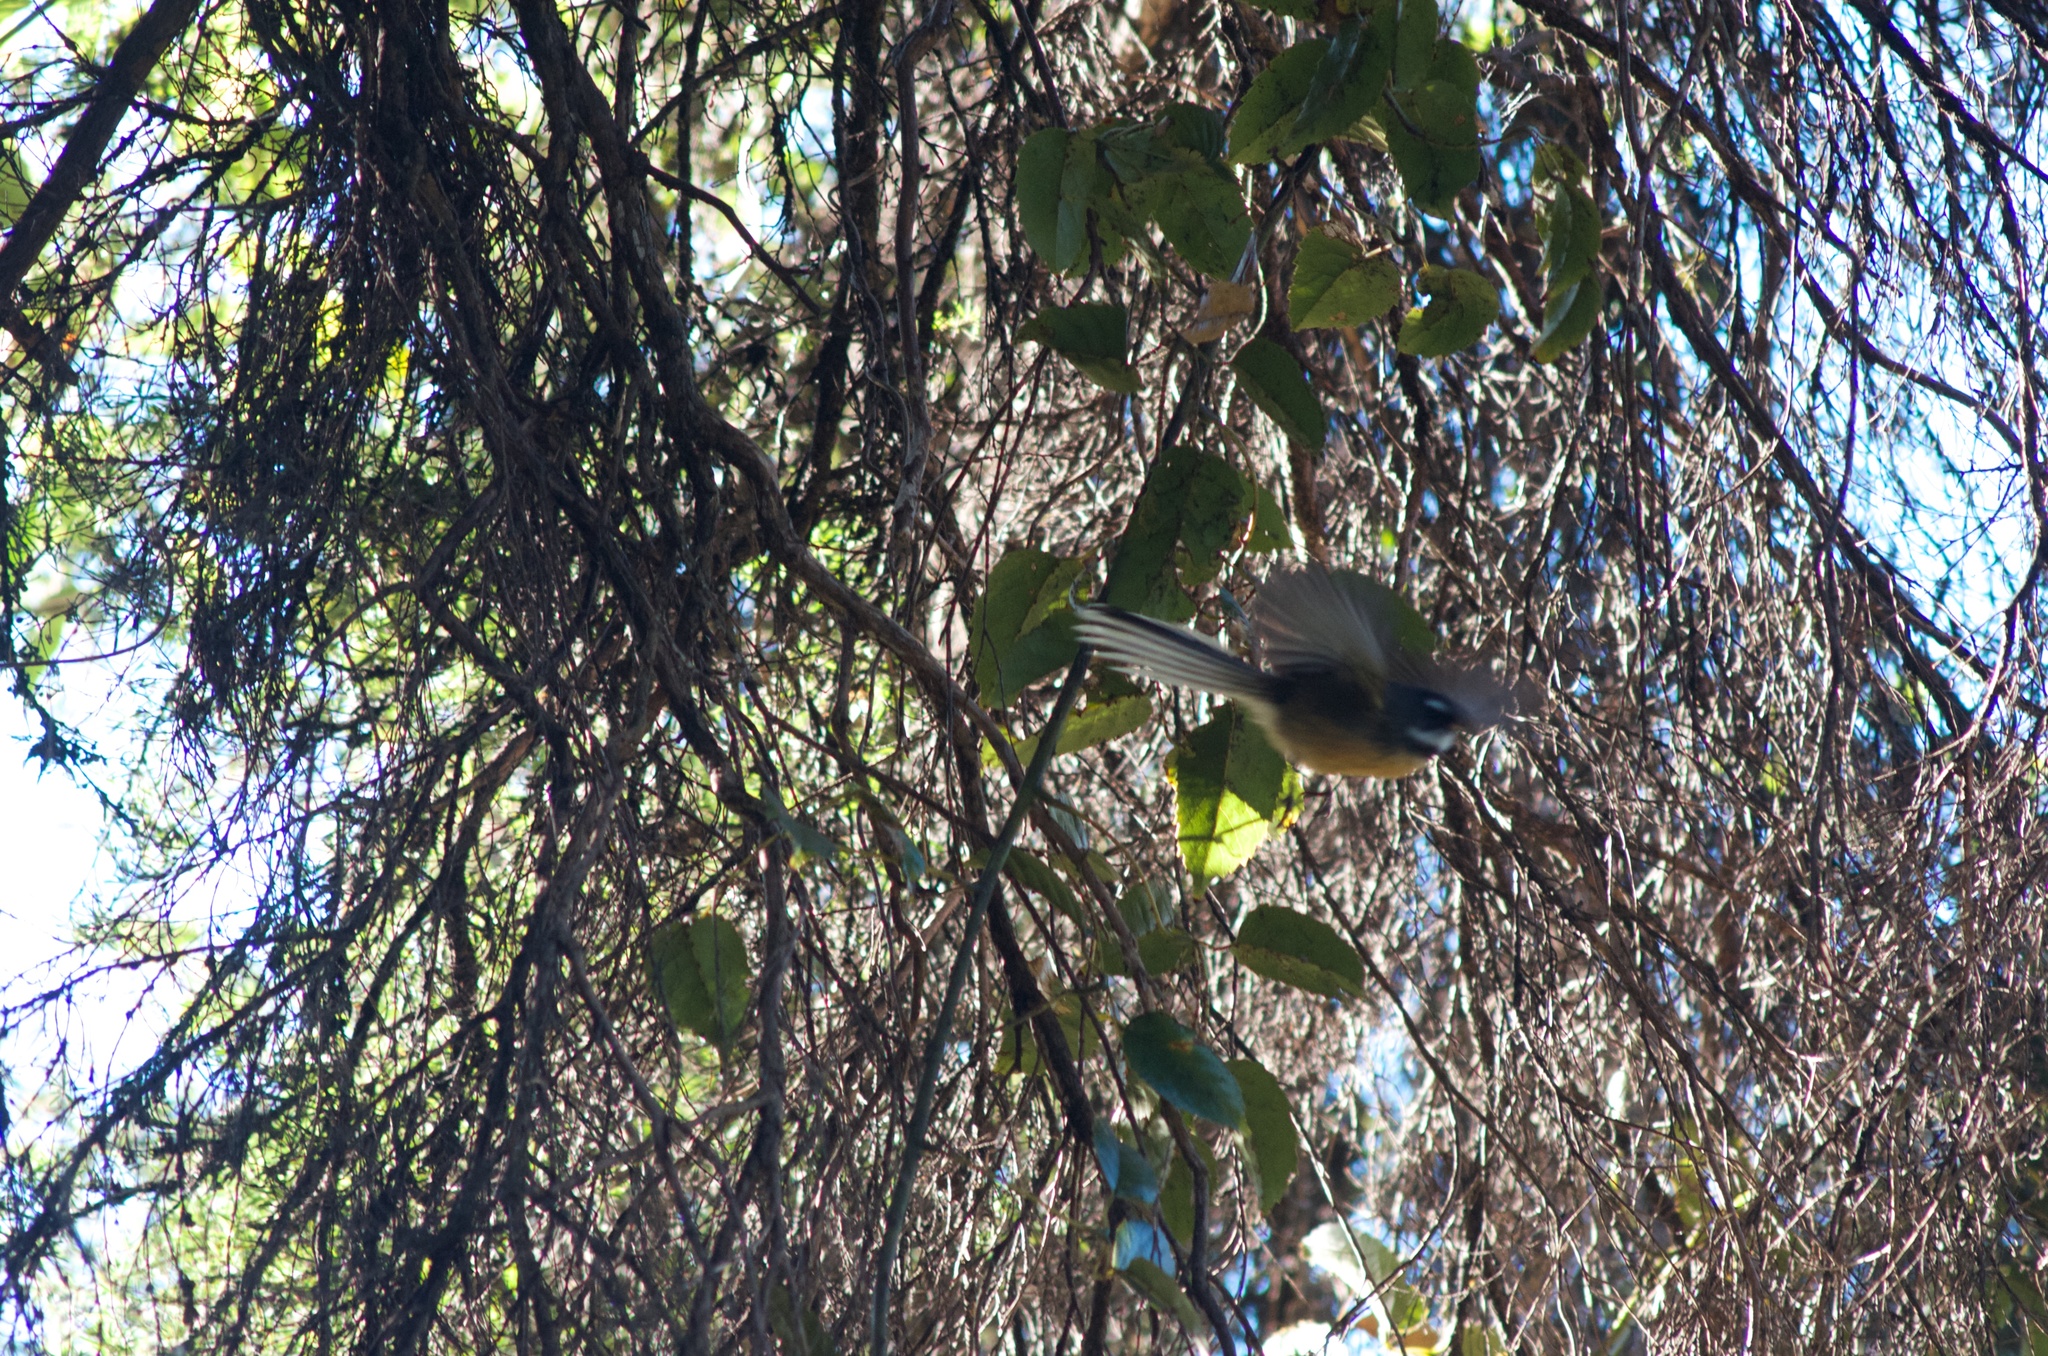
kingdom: Animalia
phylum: Chordata
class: Aves
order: Passeriformes
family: Rhipiduridae
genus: Rhipidura
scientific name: Rhipidura fuliginosa
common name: New zealand fantail
